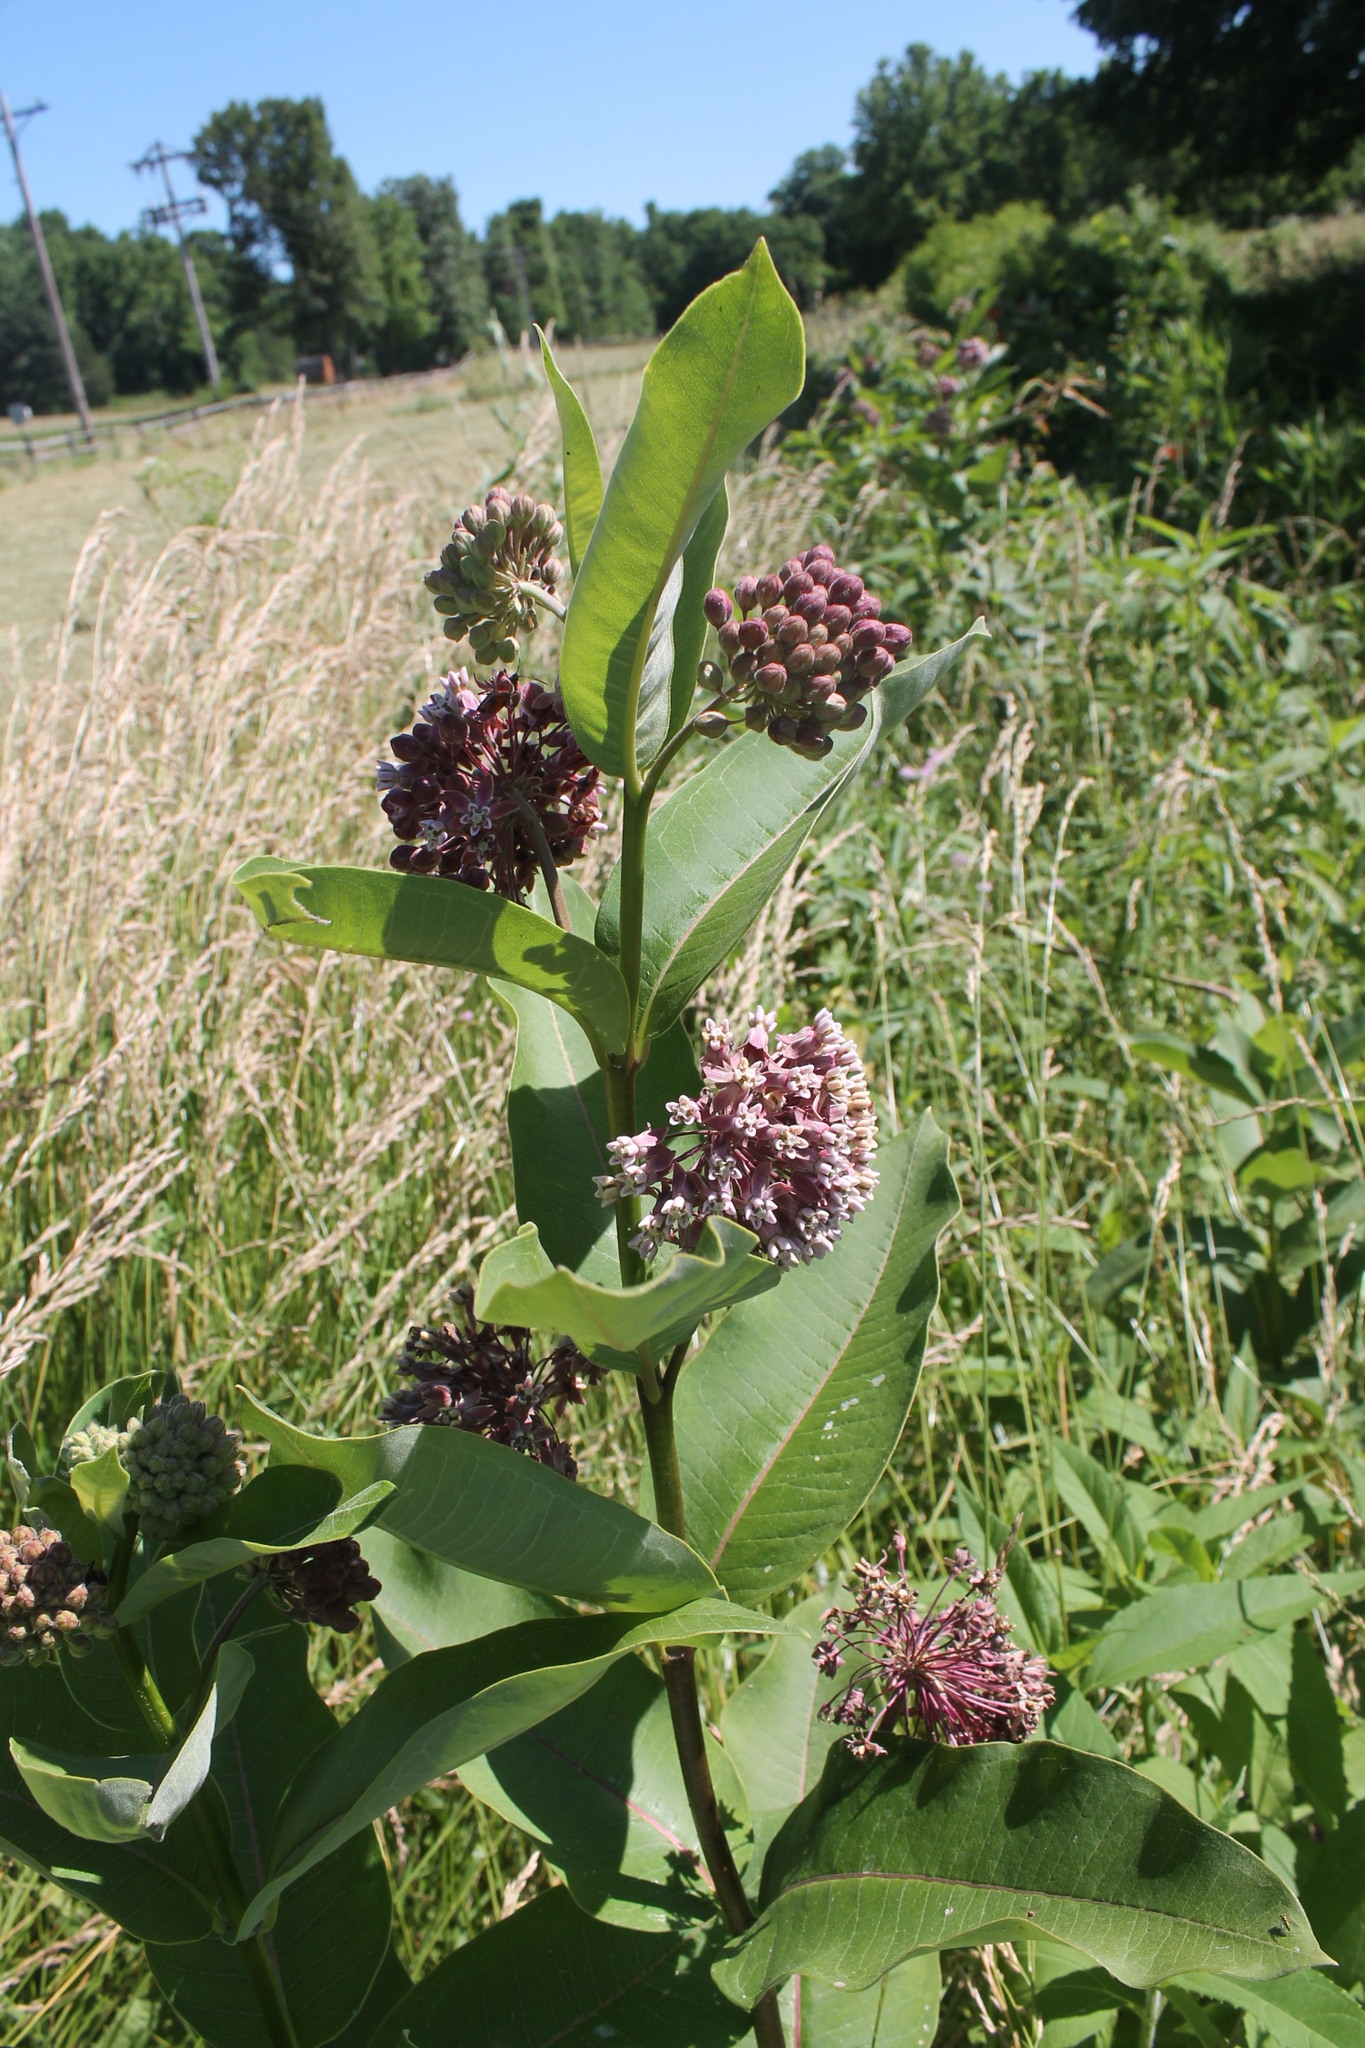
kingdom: Plantae
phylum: Tracheophyta
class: Magnoliopsida
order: Gentianales
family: Apocynaceae
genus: Asclepias
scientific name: Asclepias syriaca
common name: Common milkweed
